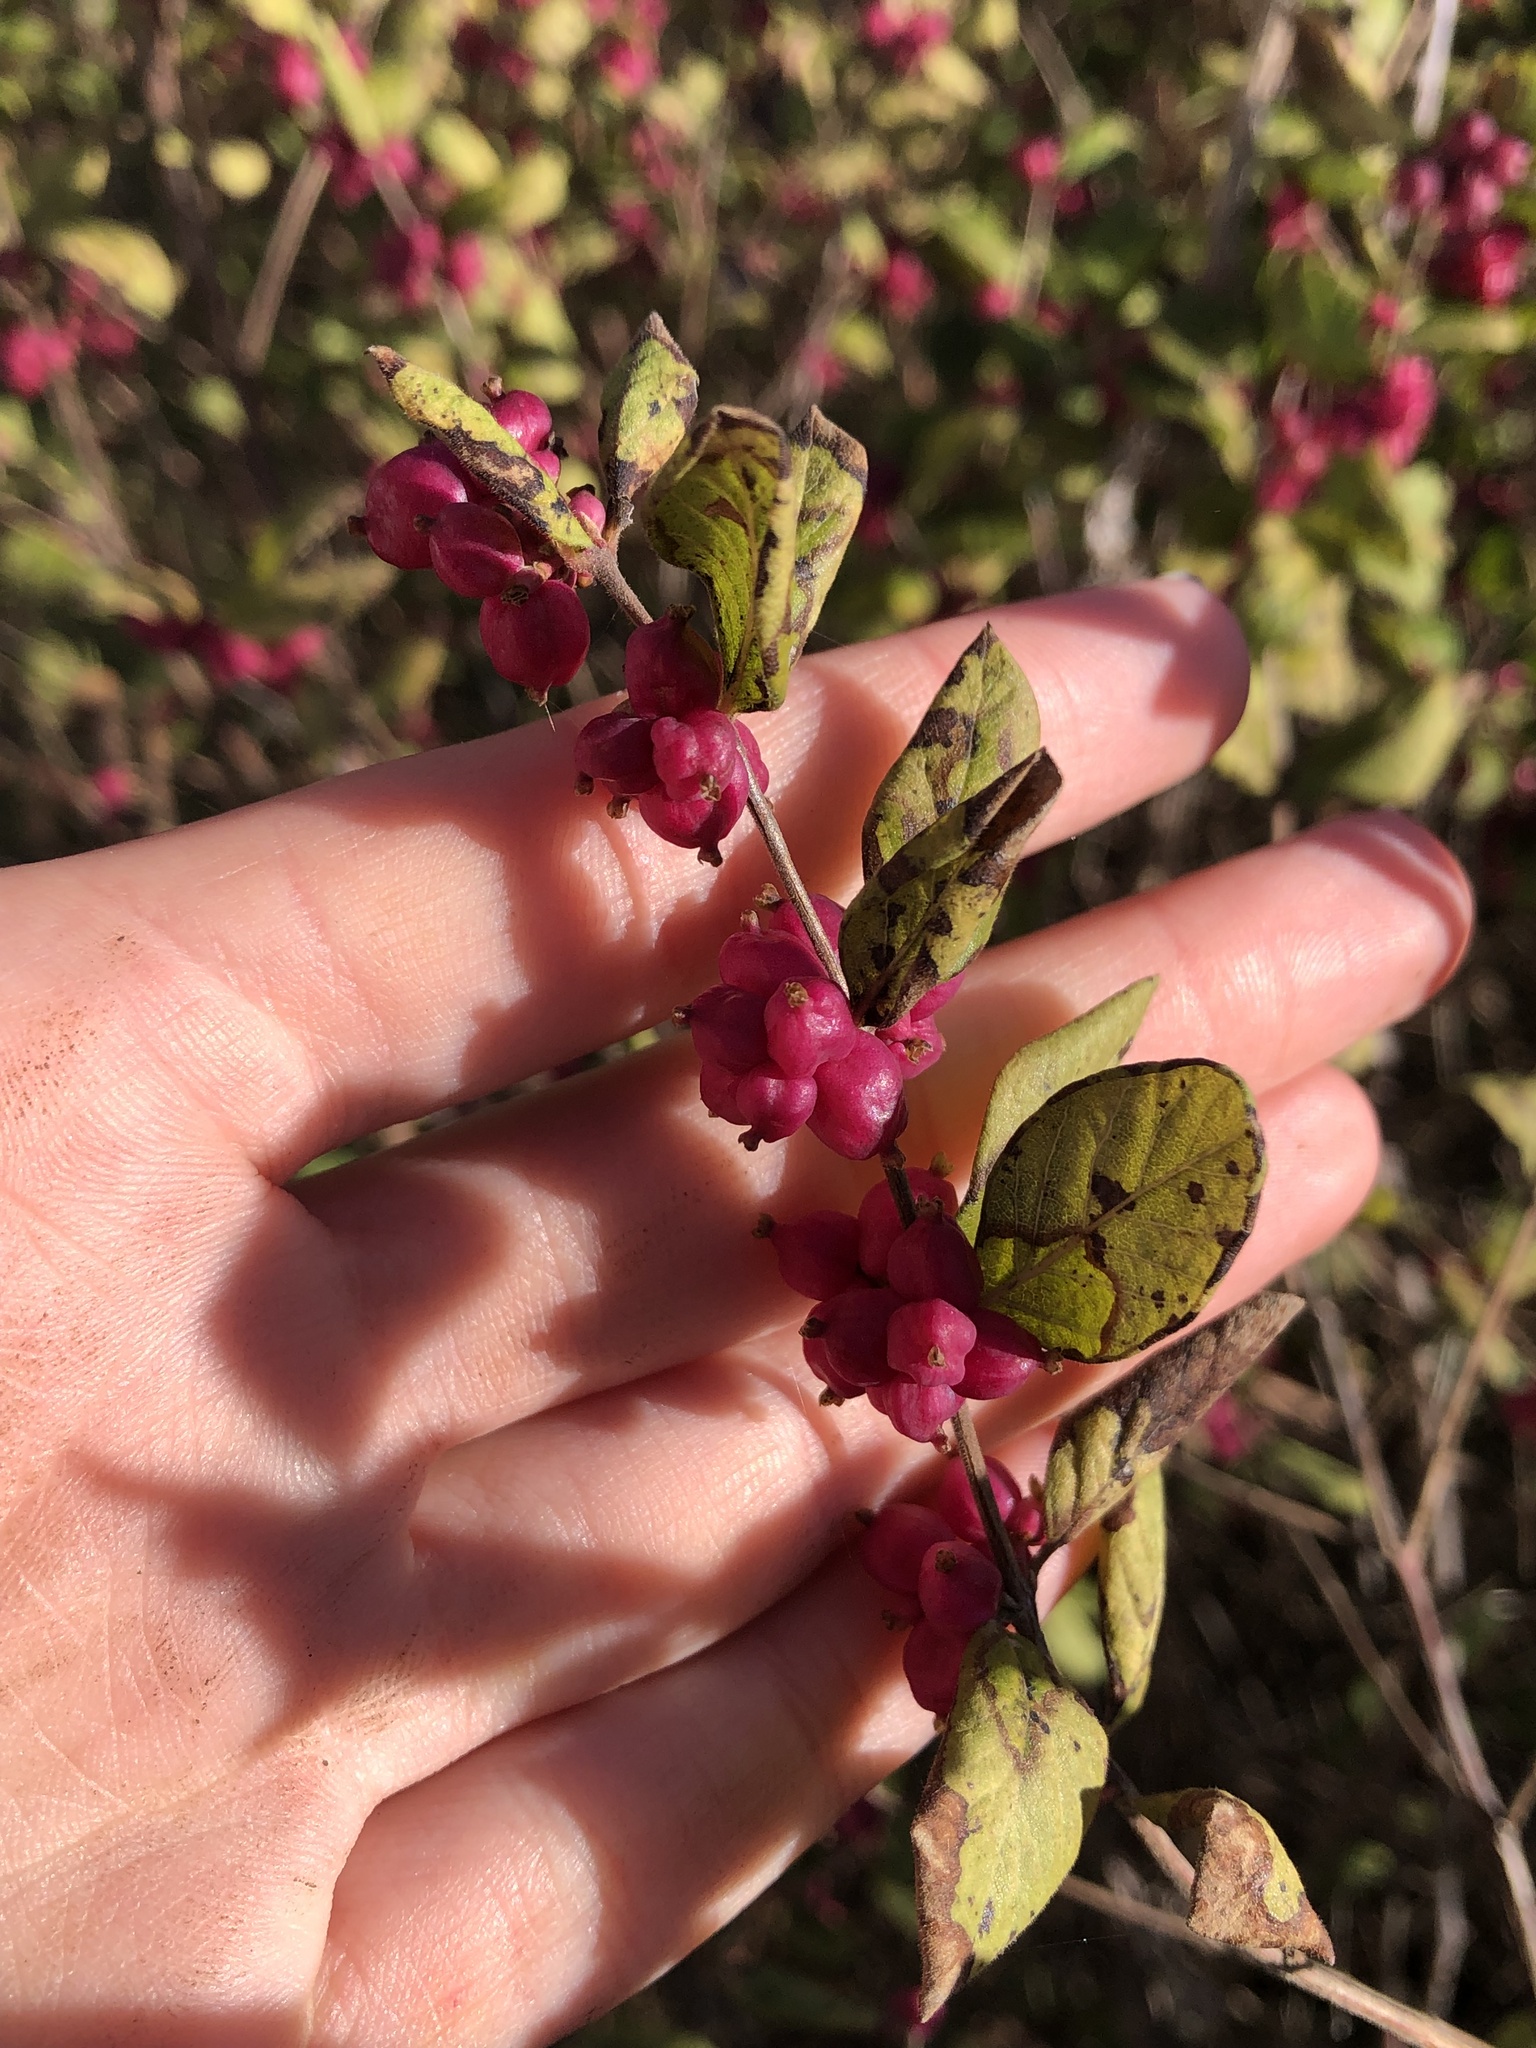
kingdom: Plantae
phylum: Tracheophyta
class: Magnoliopsida
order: Dipsacales
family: Caprifoliaceae
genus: Symphoricarpos
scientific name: Symphoricarpos orbiculatus
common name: Coralberry
